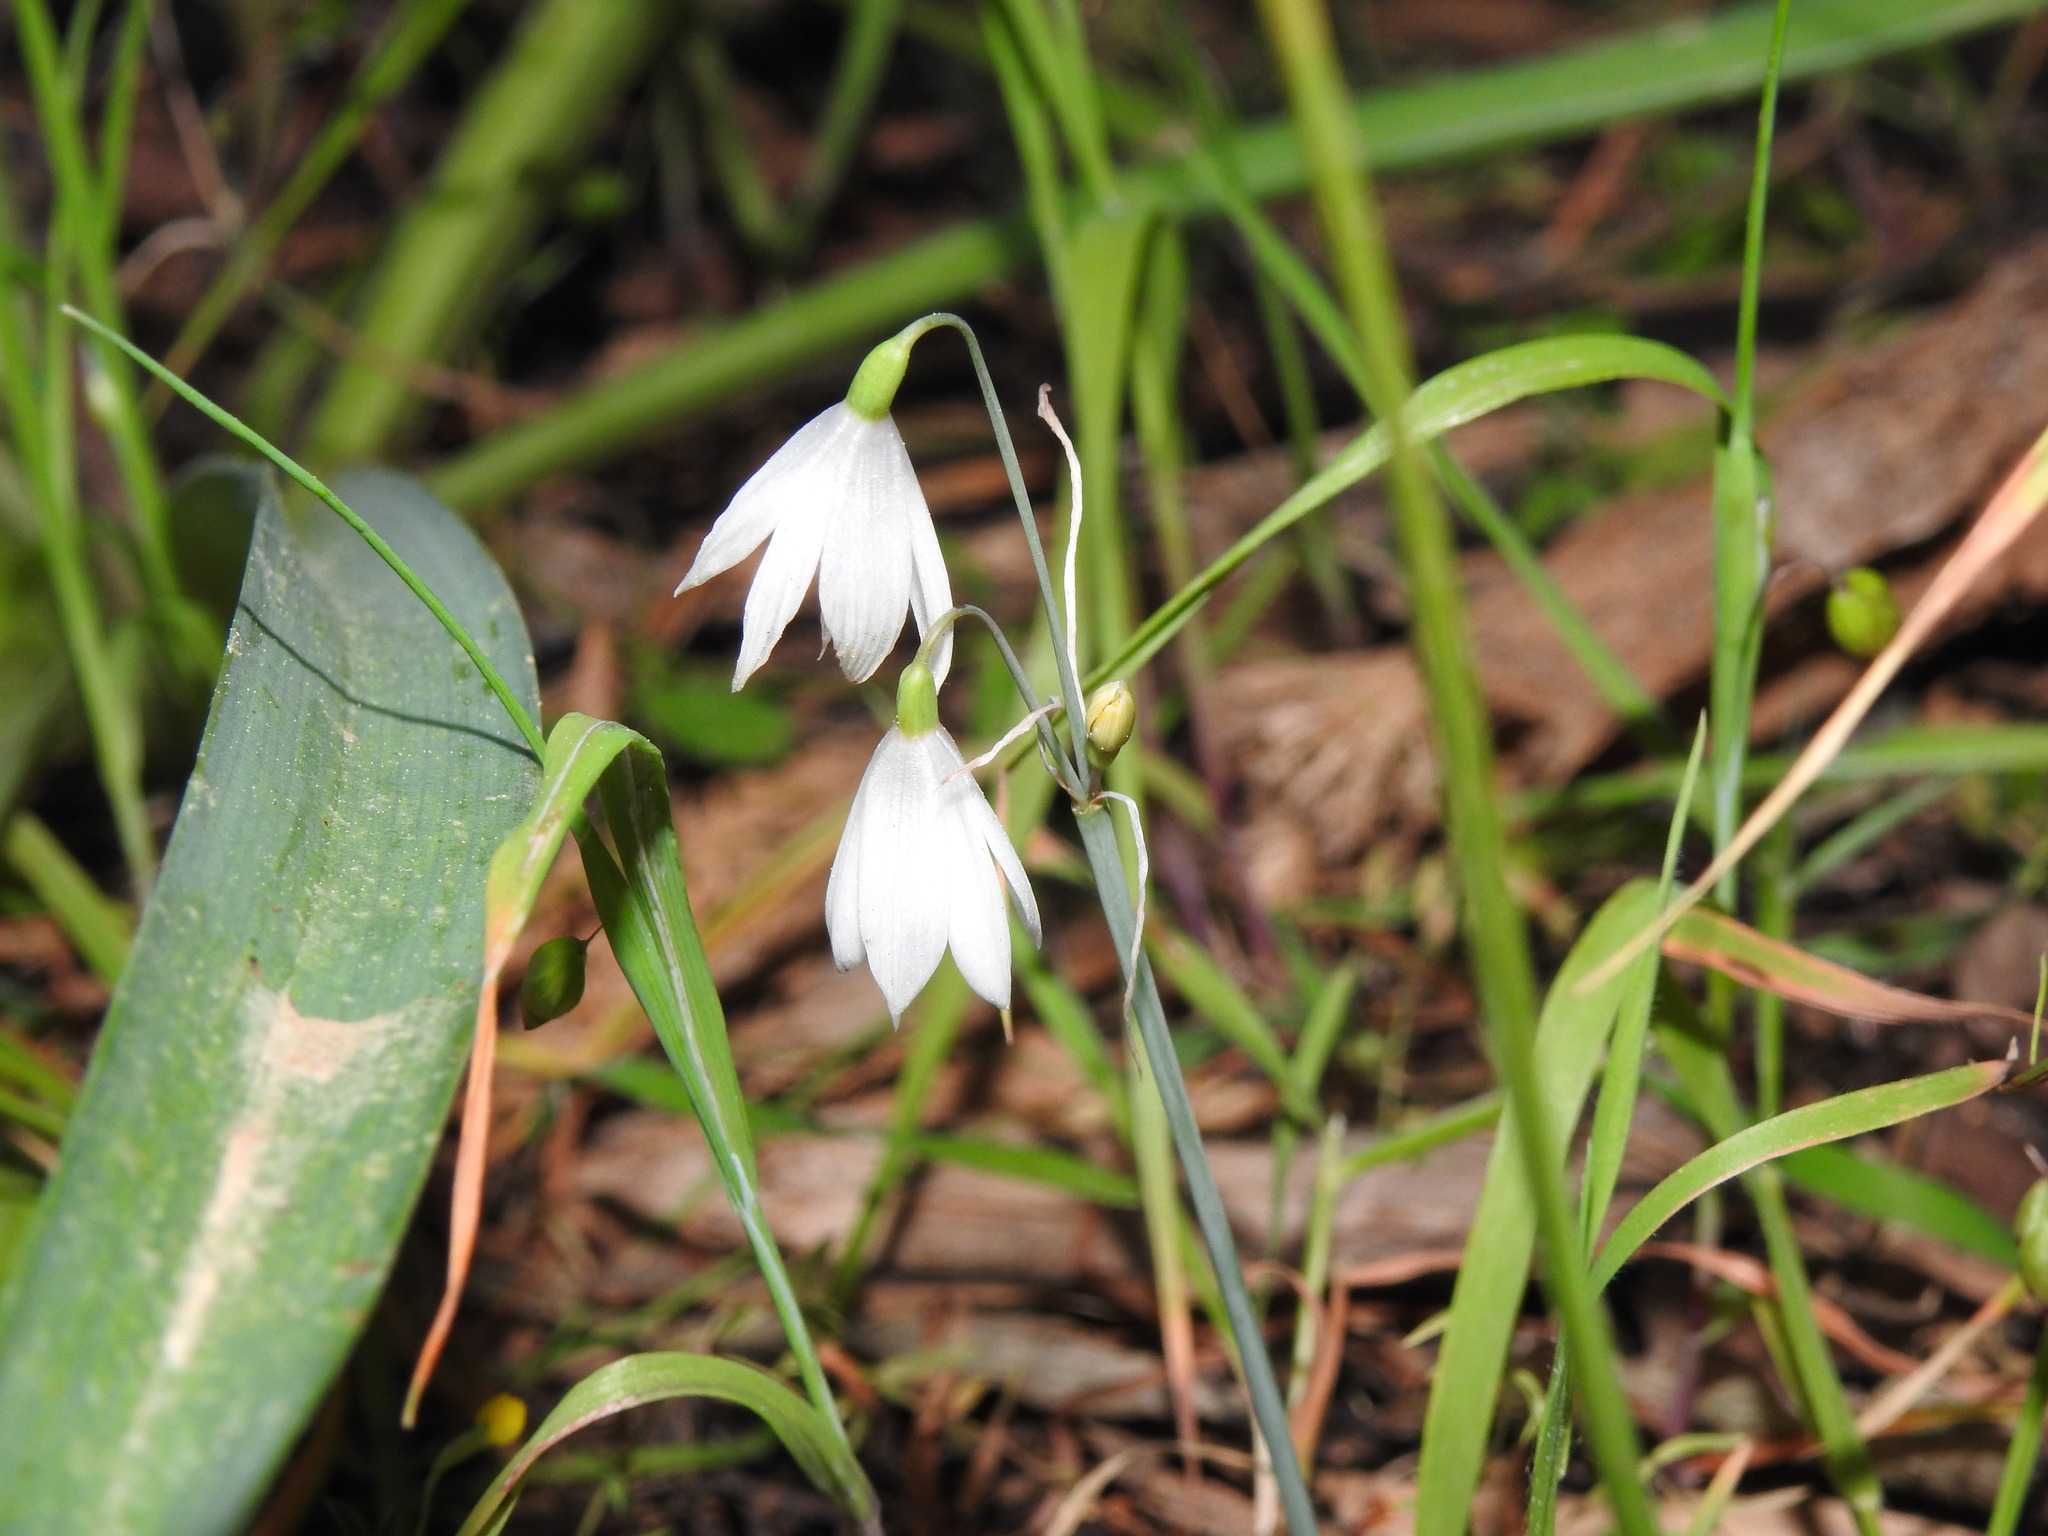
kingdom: Plantae
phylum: Tracheophyta
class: Liliopsida
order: Asparagales
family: Amaryllidaceae
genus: Acis
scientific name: Acis trichophylla
